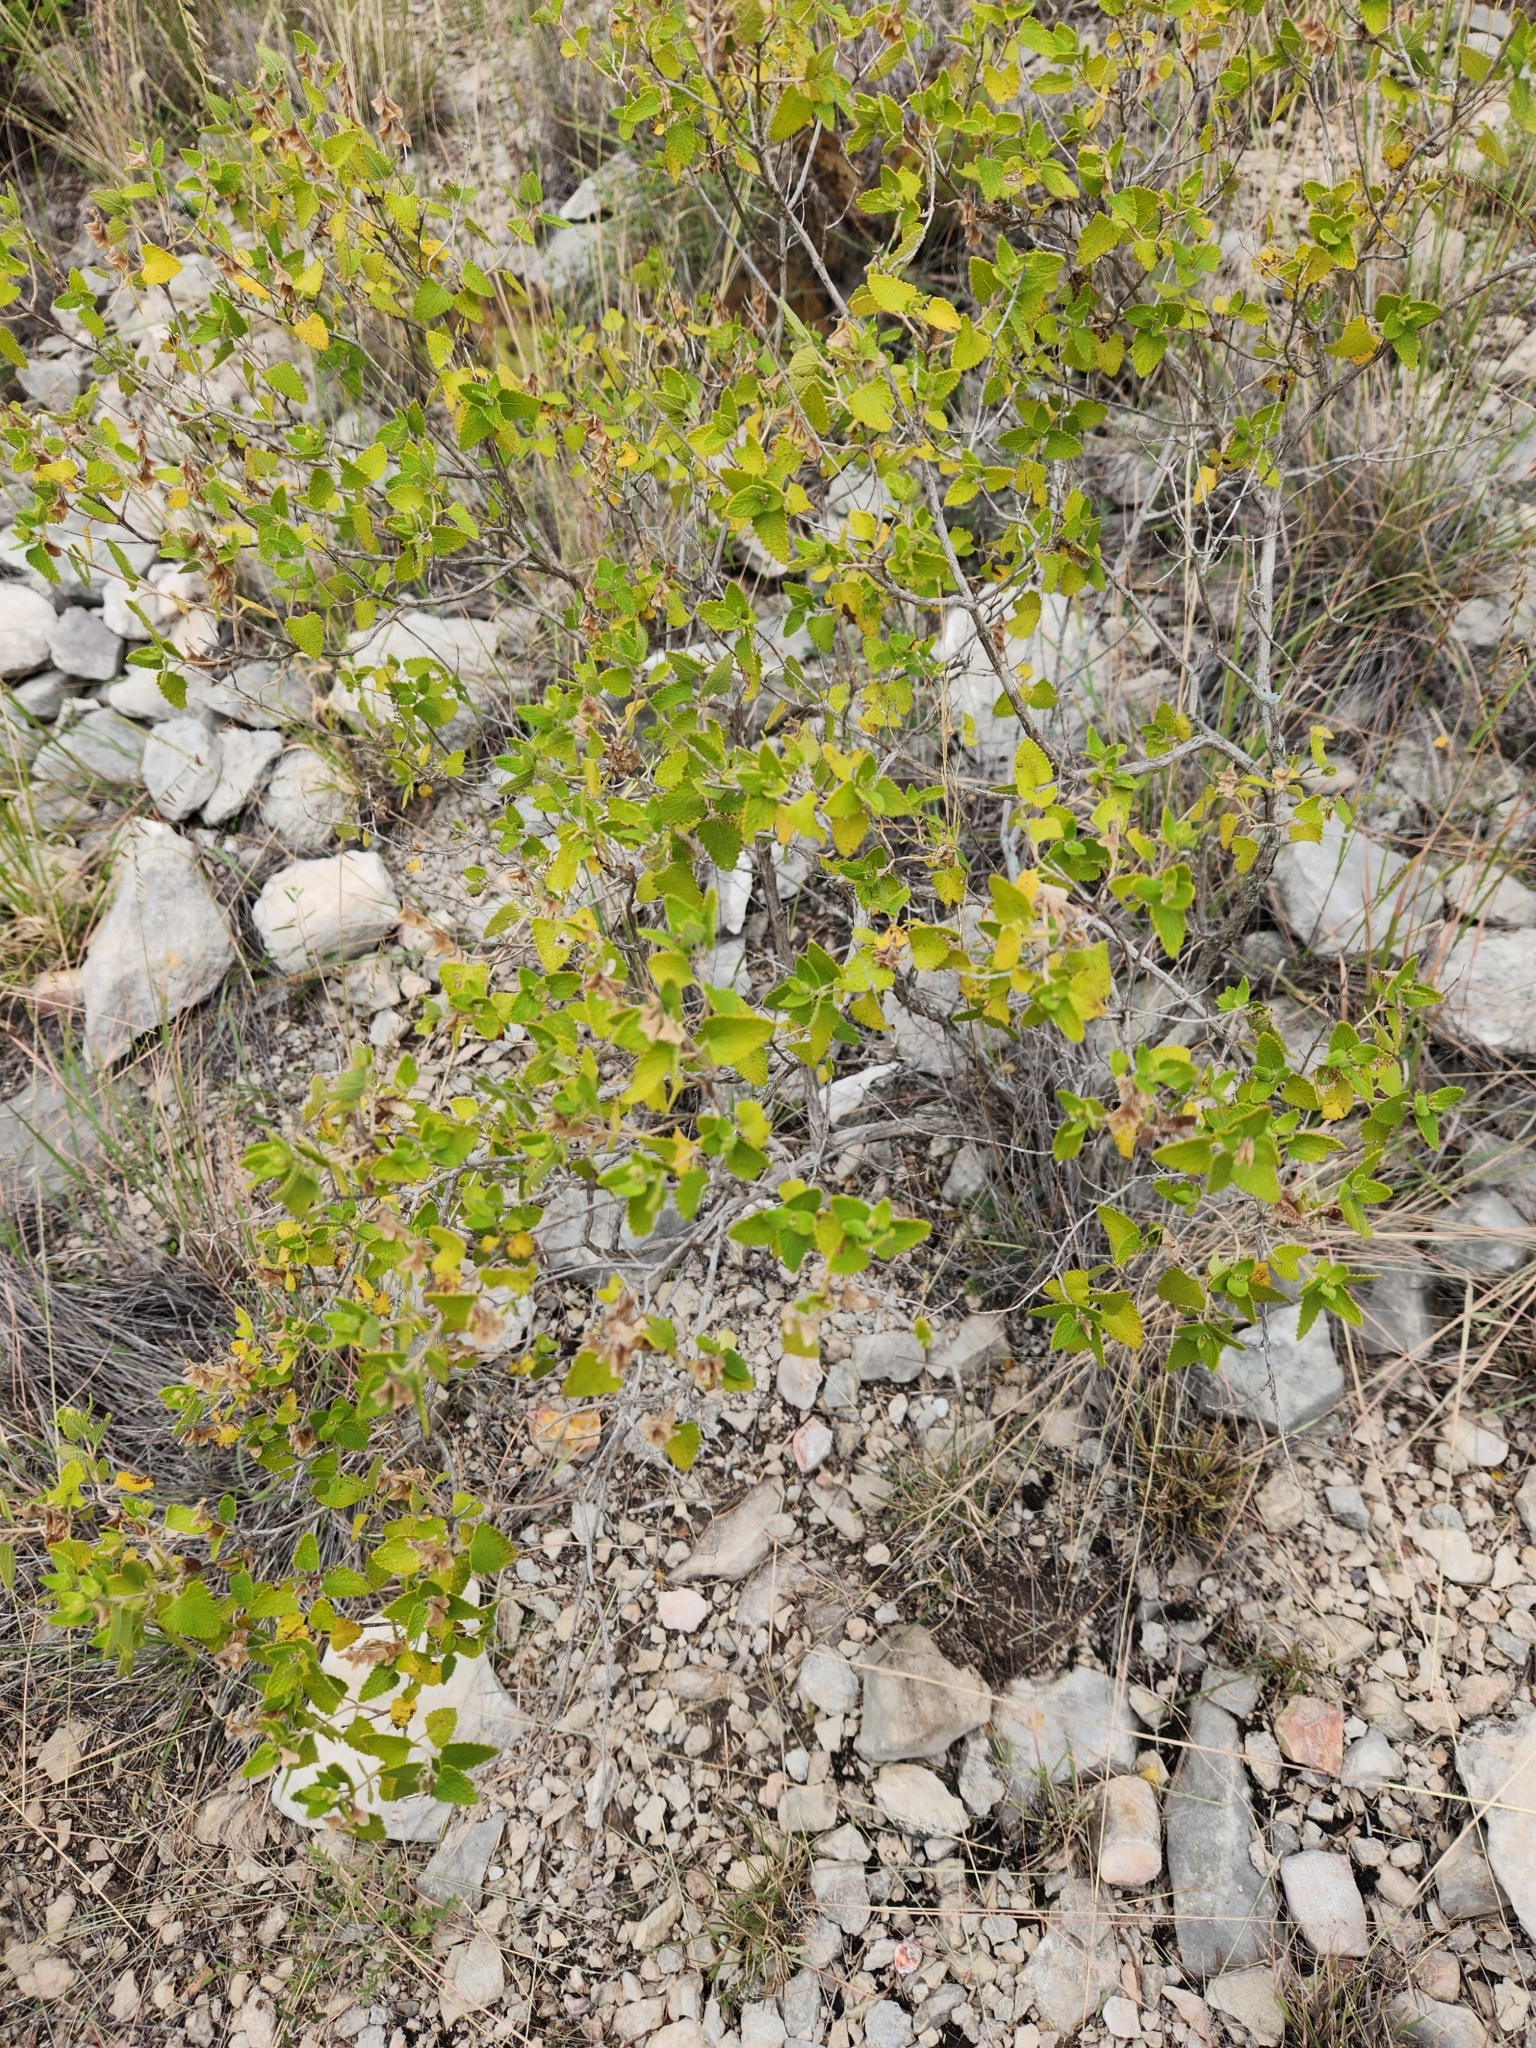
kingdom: Plantae
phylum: Tracheophyta
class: Magnoliopsida
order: Lamiales
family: Lamiaceae
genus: Salvia
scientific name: Salvia ballotiflora
